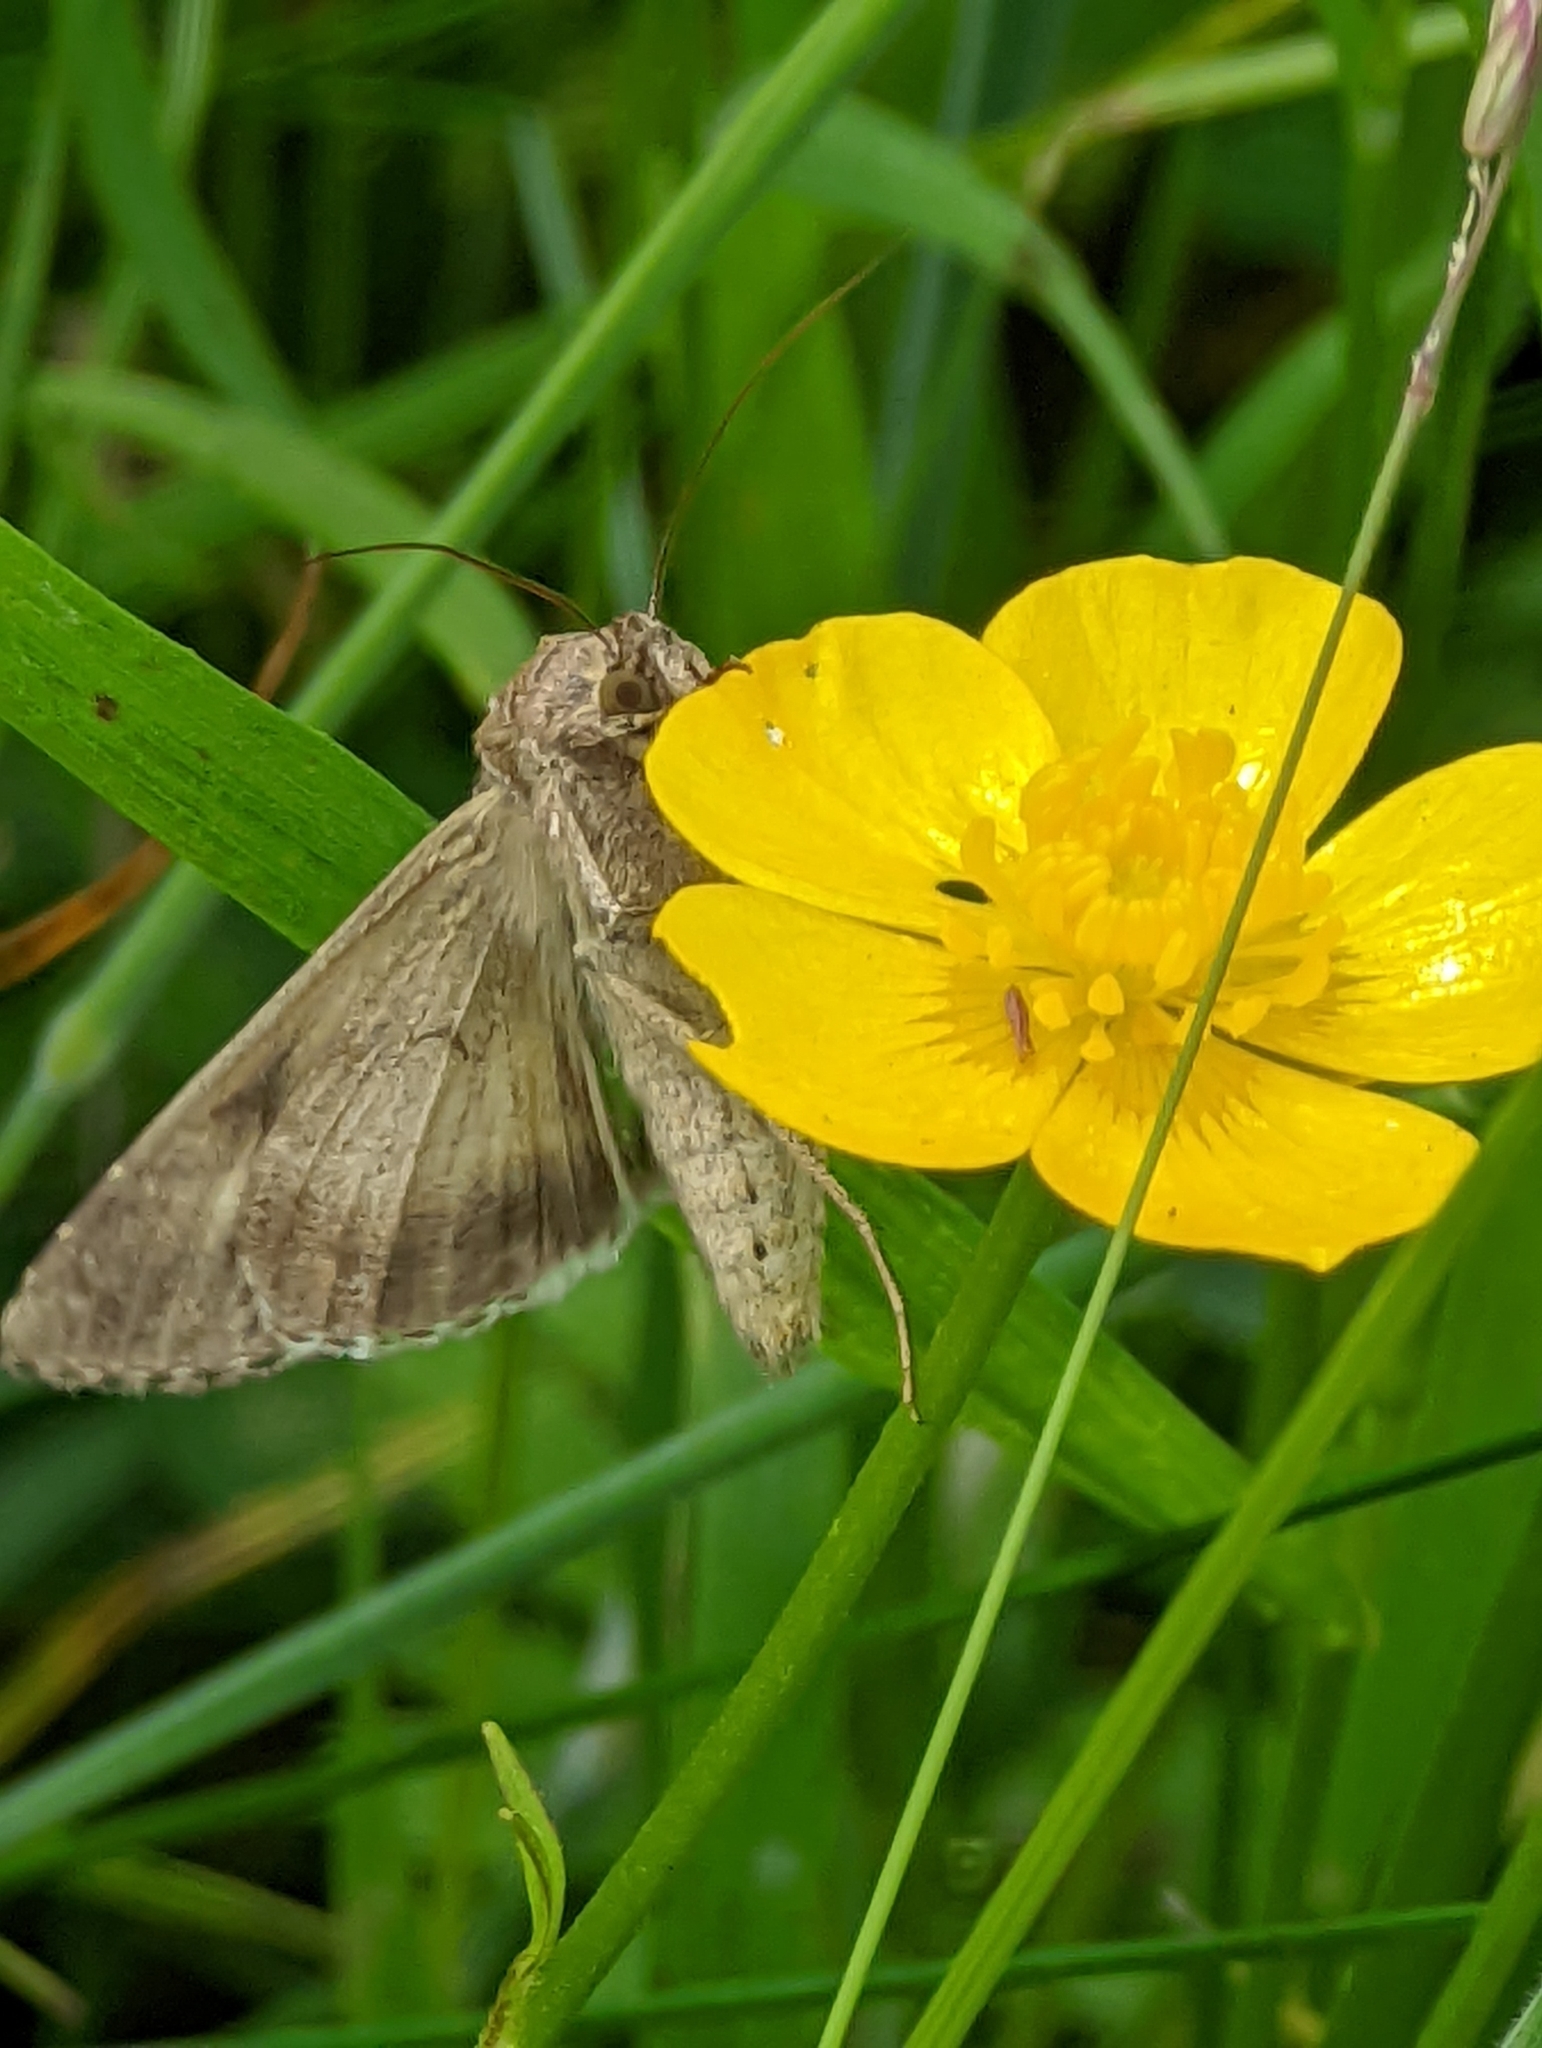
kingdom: Animalia
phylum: Arthropoda
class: Insecta
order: Lepidoptera
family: Noctuidae
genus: Autographa
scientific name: Autographa gamma
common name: Silver y
